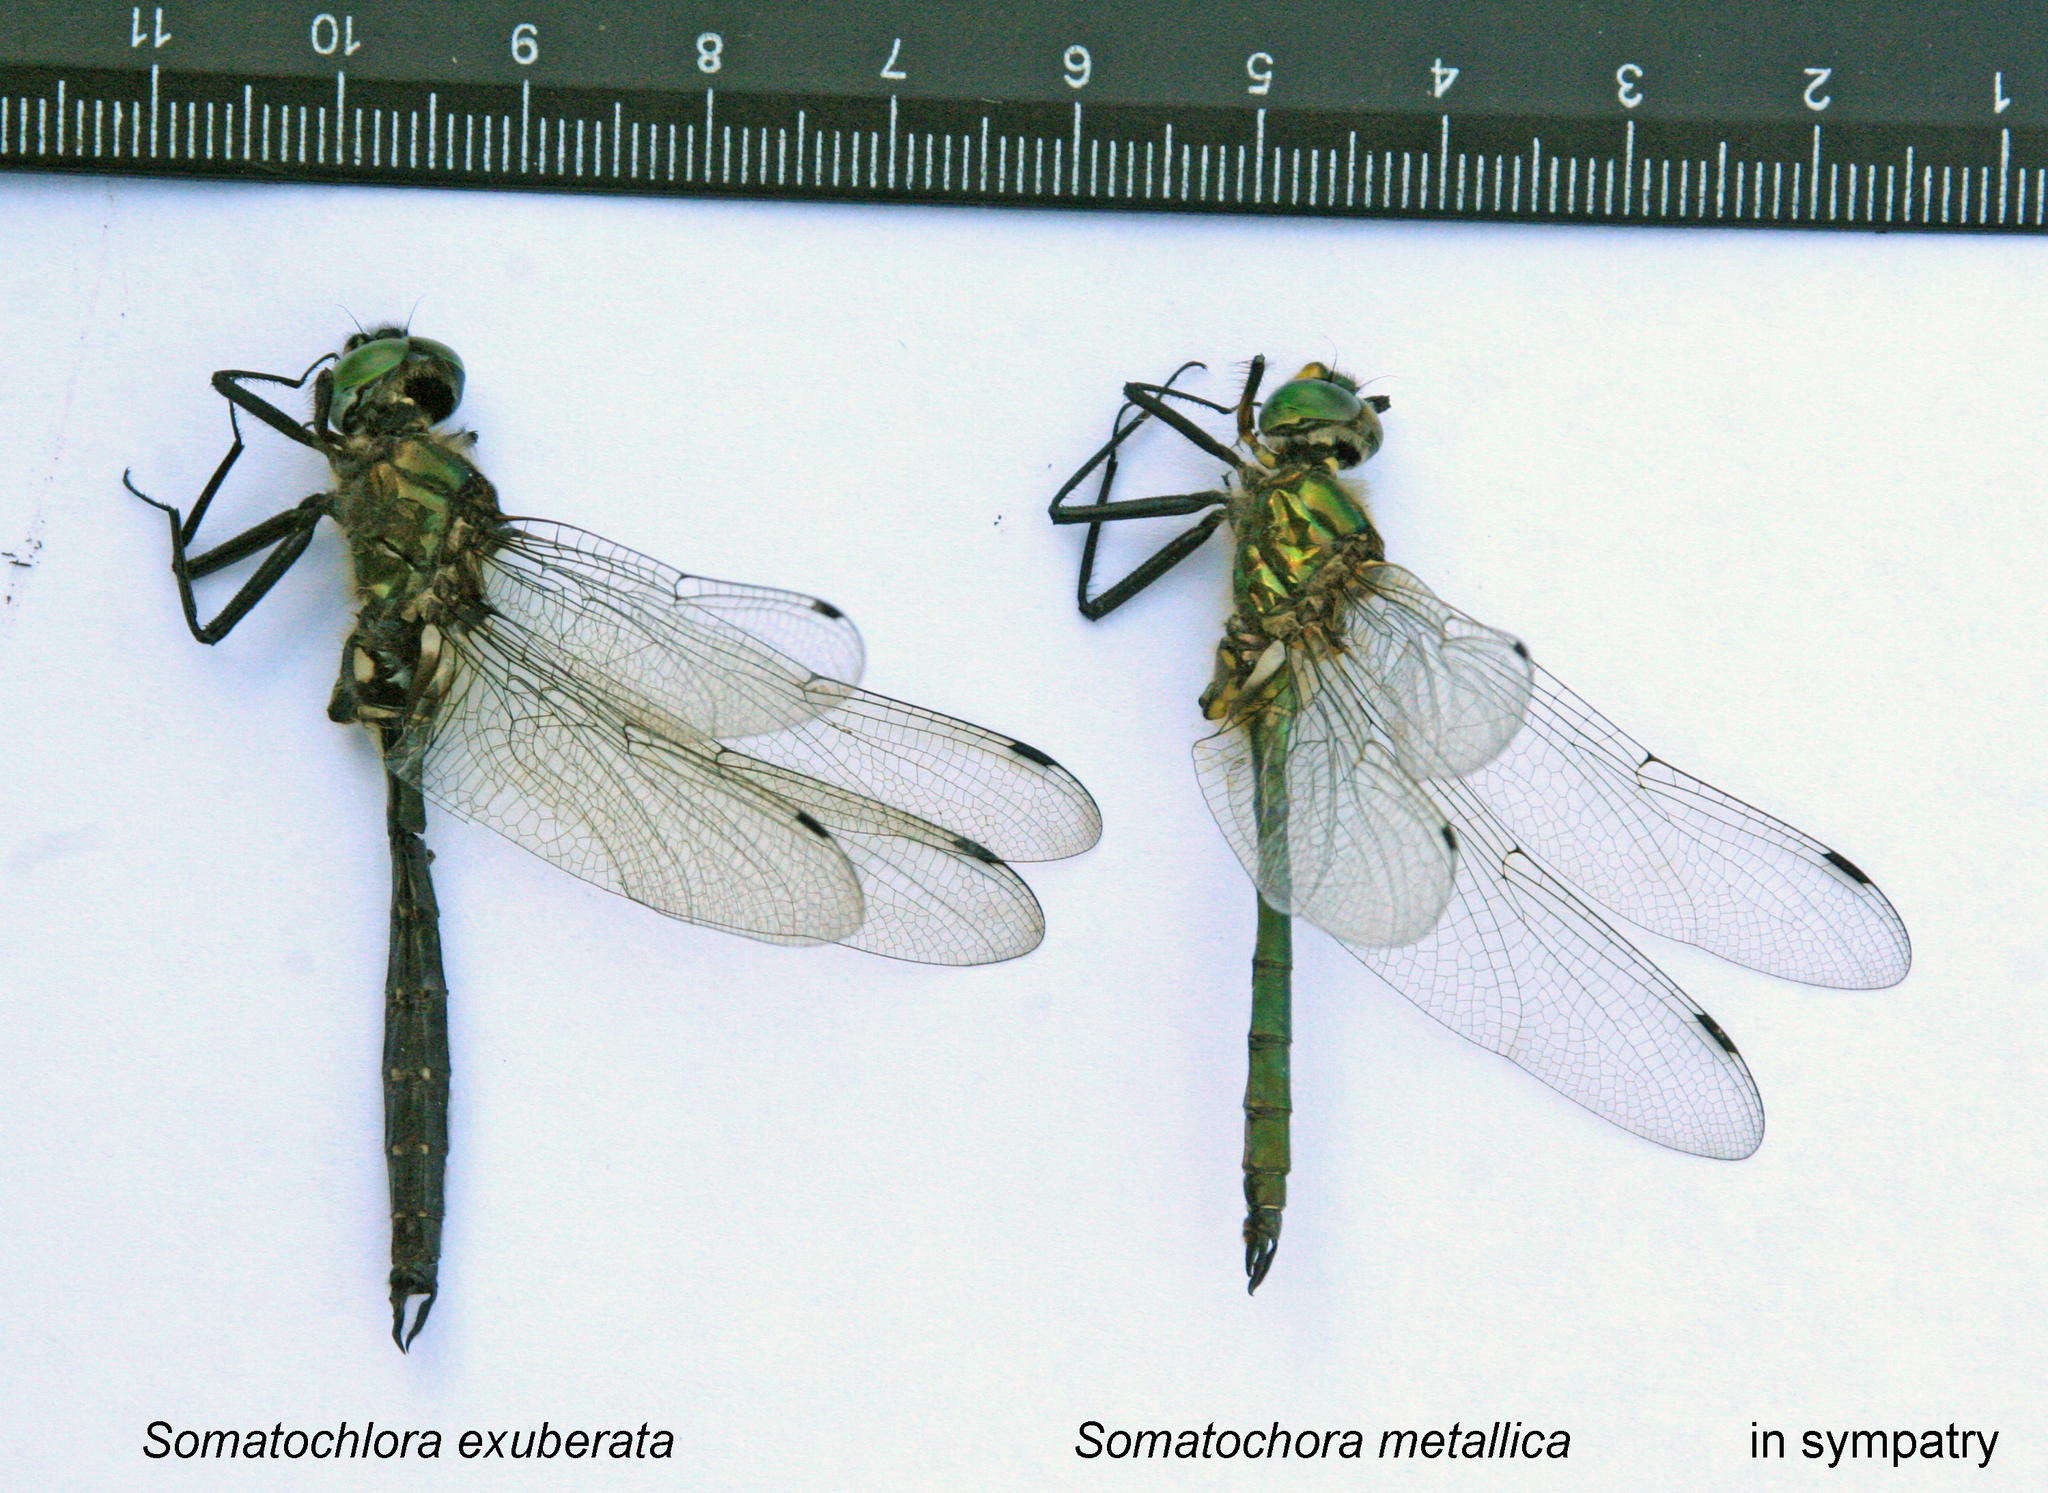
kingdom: Animalia
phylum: Arthropoda
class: Insecta
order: Odonata
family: Corduliidae
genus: Somatochlora
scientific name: Somatochlora metallica
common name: Brilliant emerald
